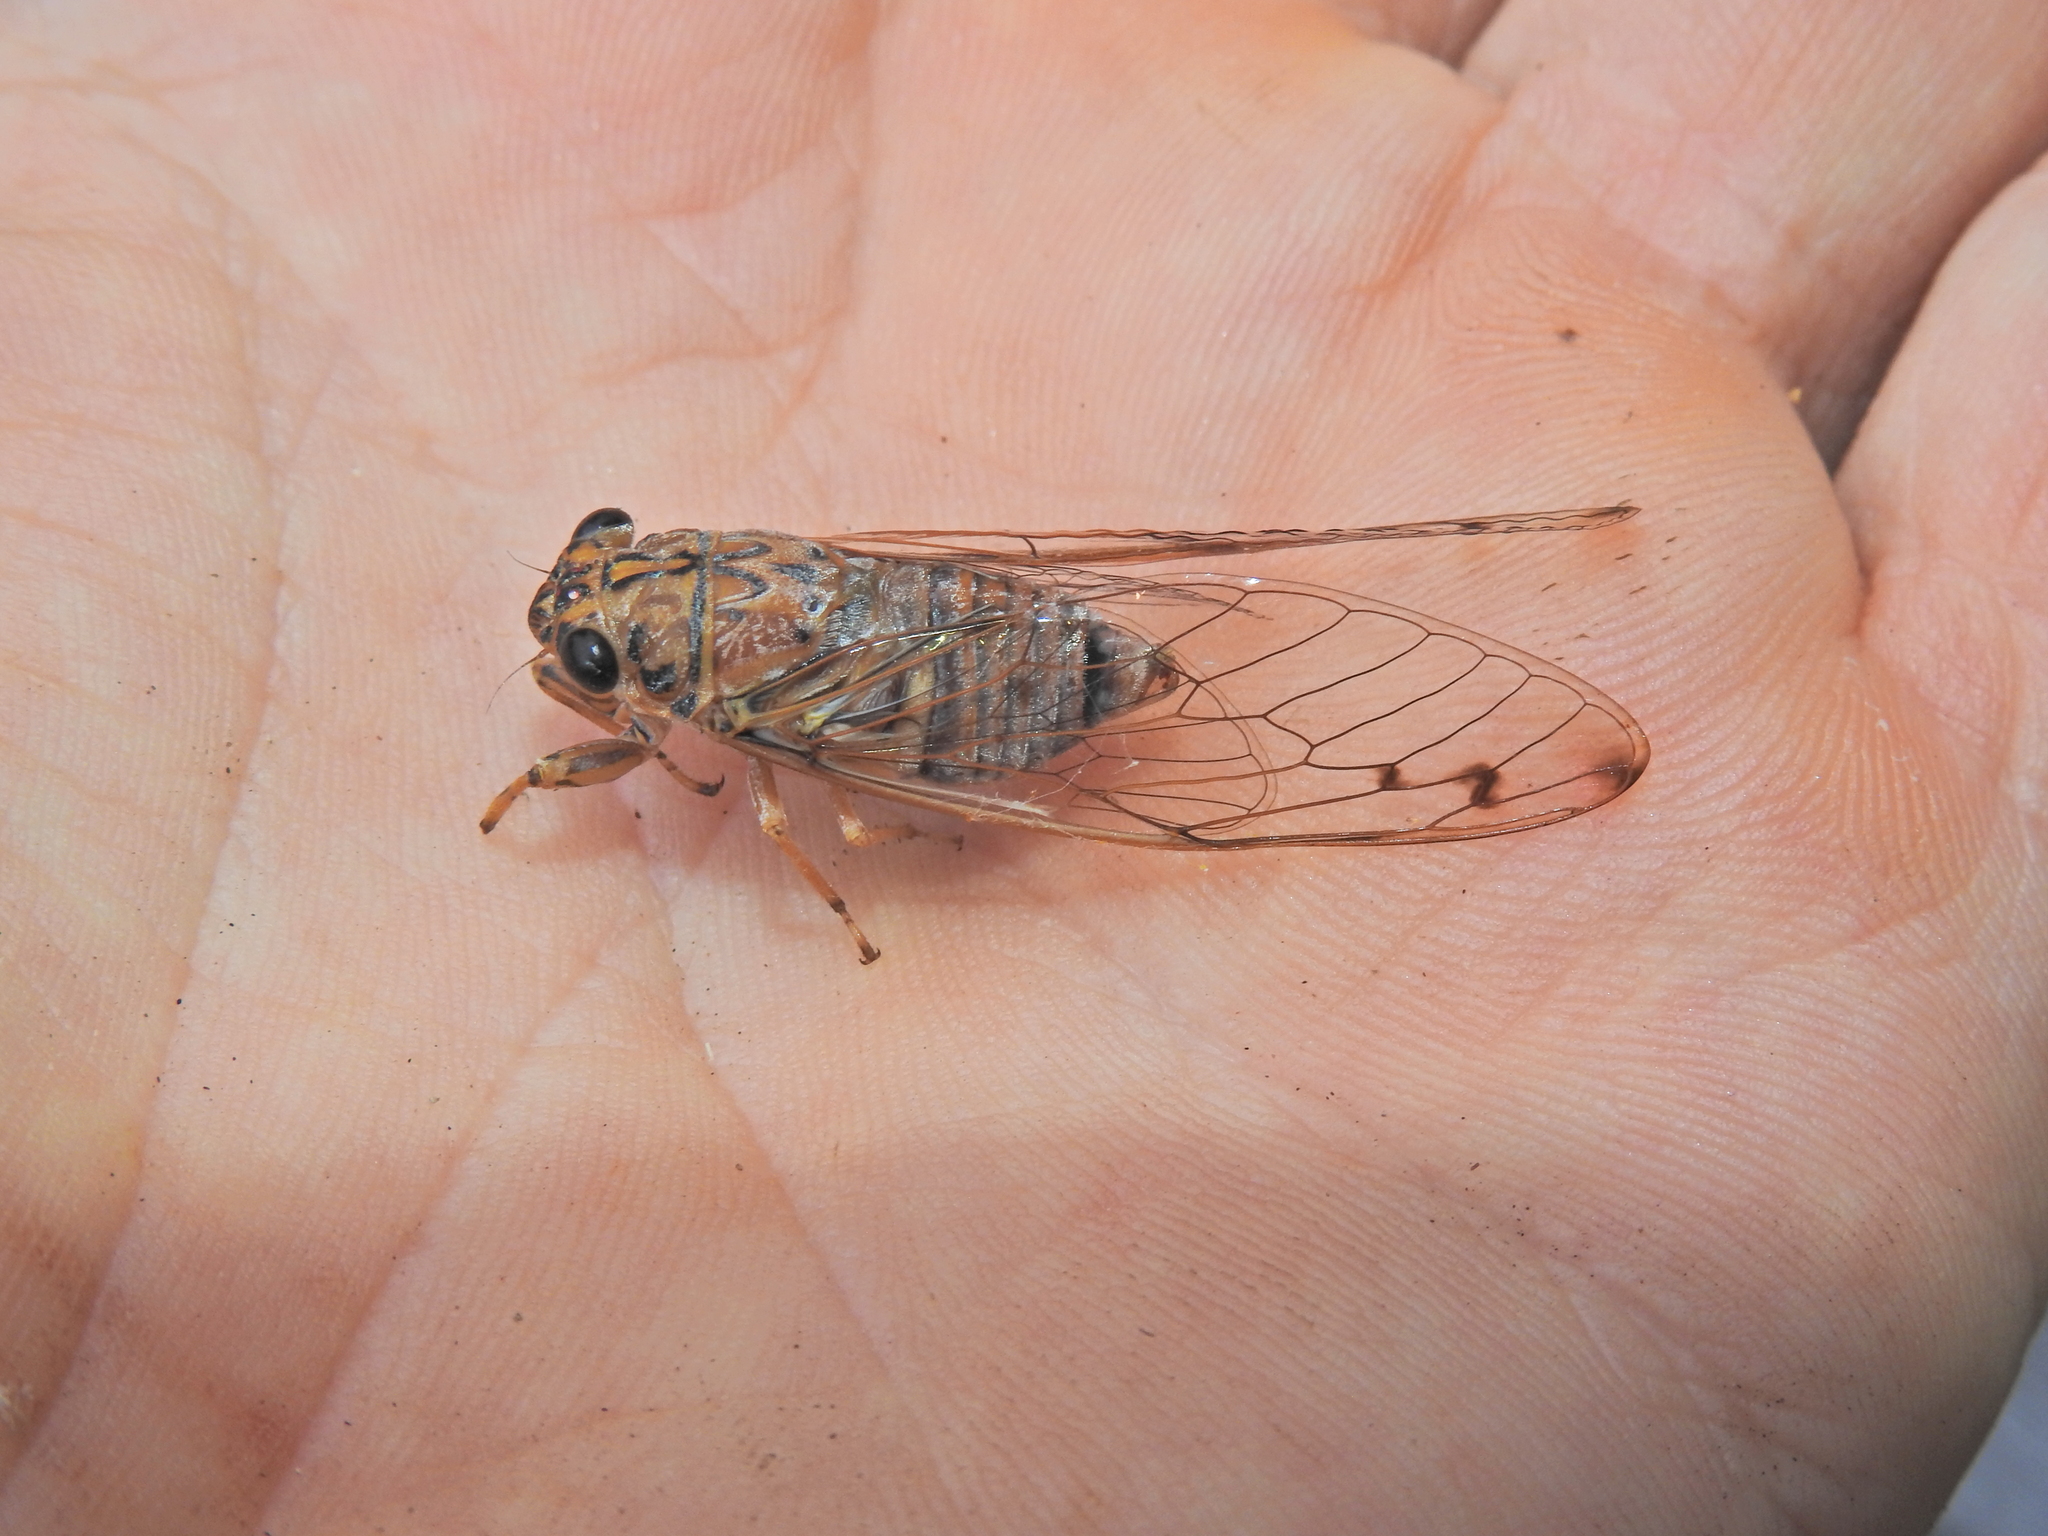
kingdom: Animalia
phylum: Arthropoda
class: Insecta
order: Hemiptera
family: Cicadidae
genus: Tamasa
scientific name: Tamasa tristigma
